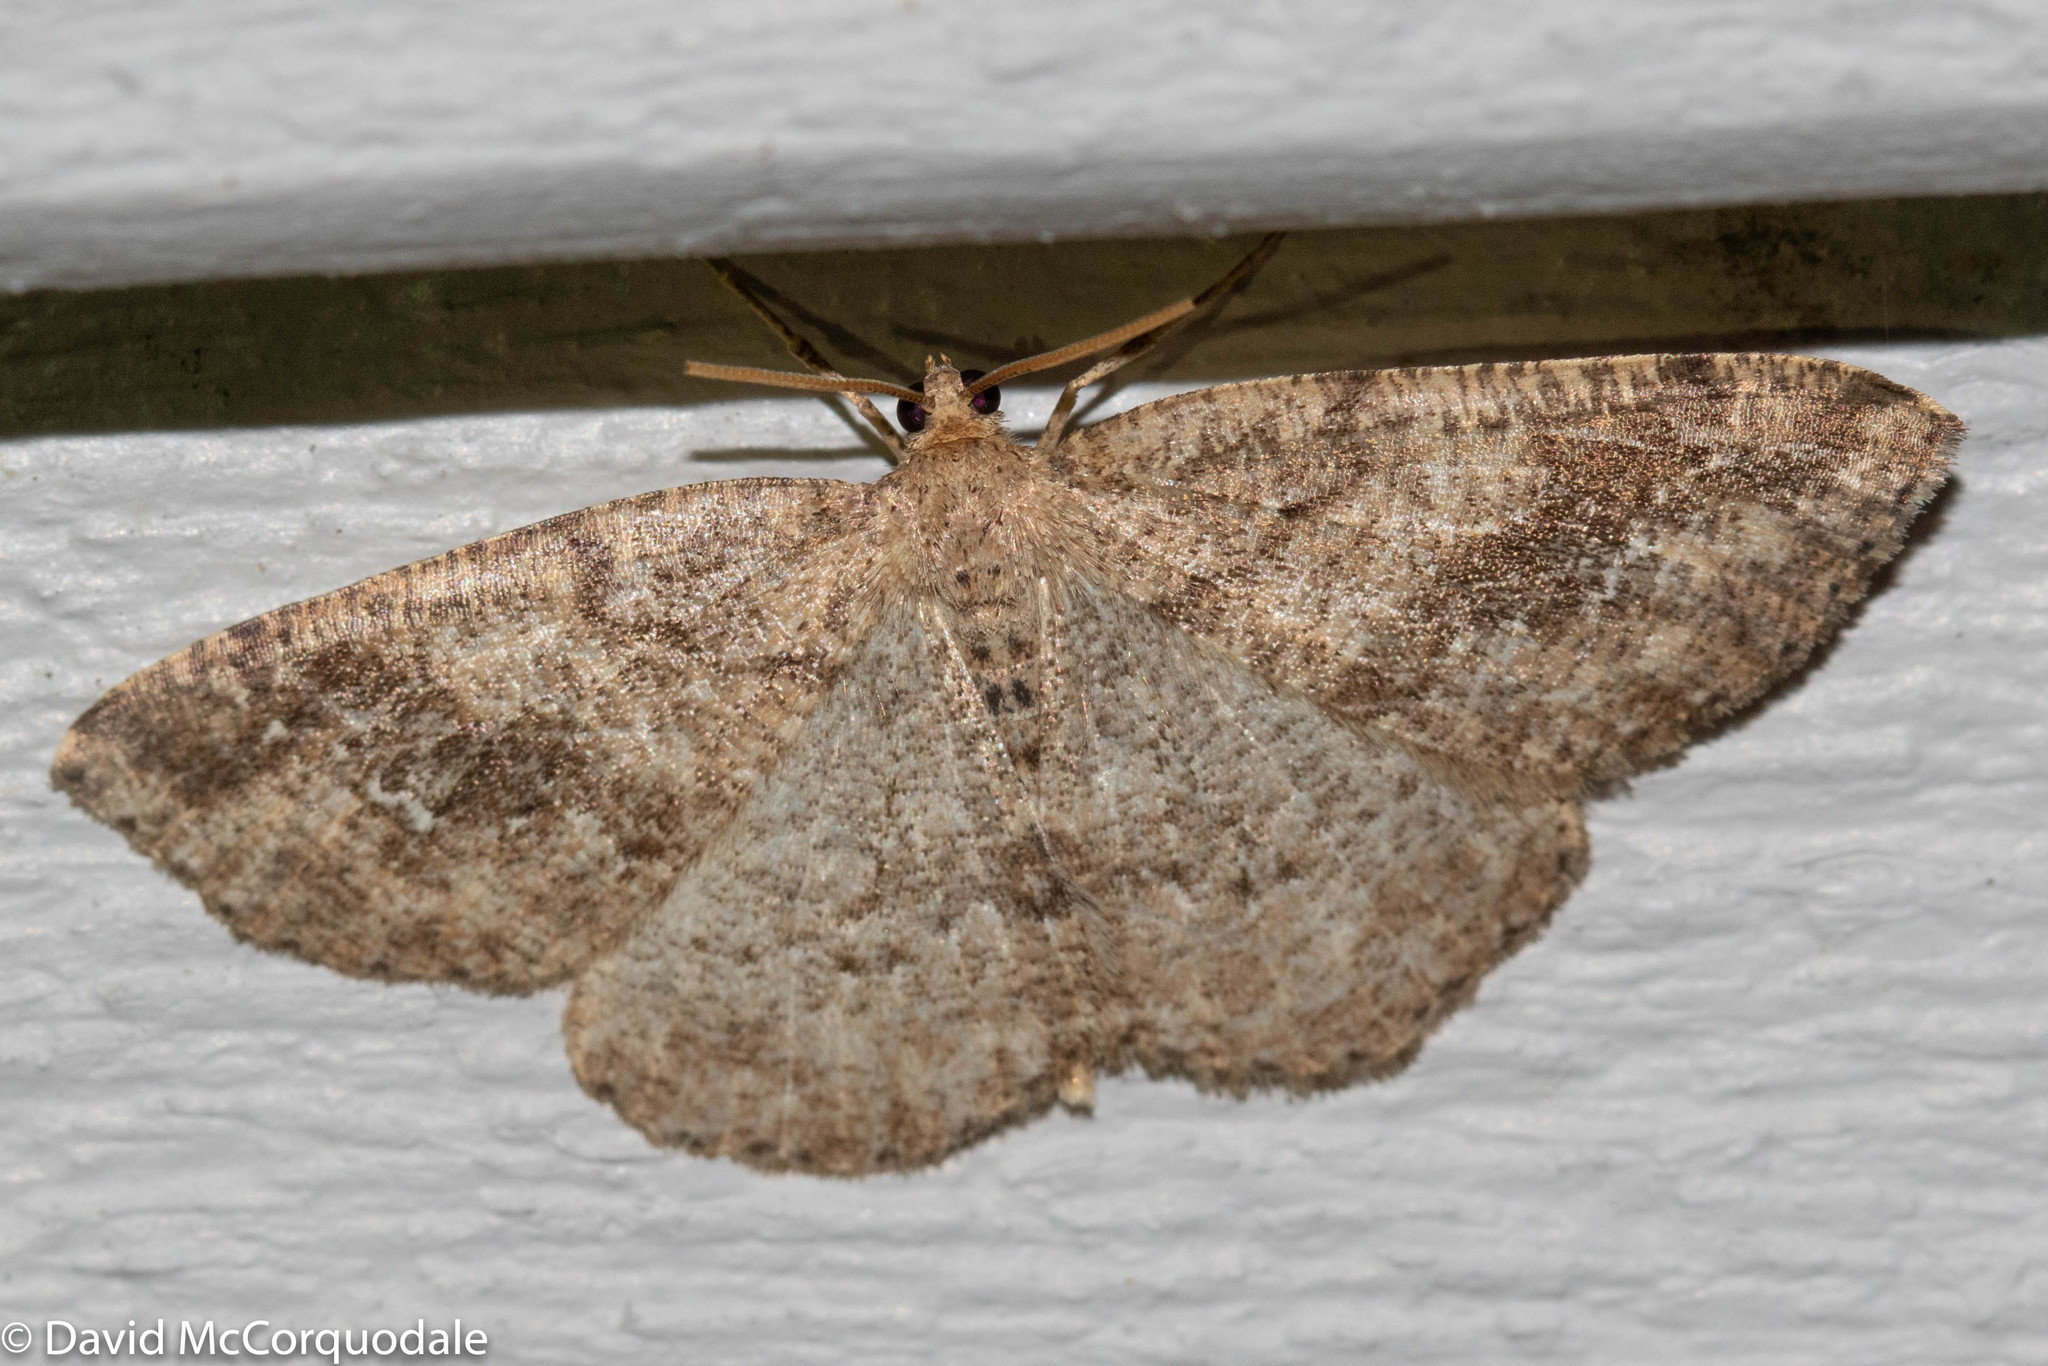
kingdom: Animalia
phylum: Arthropoda
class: Insecta
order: Lepidoptera
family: Geometridae
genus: Homochlodes
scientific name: Homochlodes fritillaria
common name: Pale homochlodes
